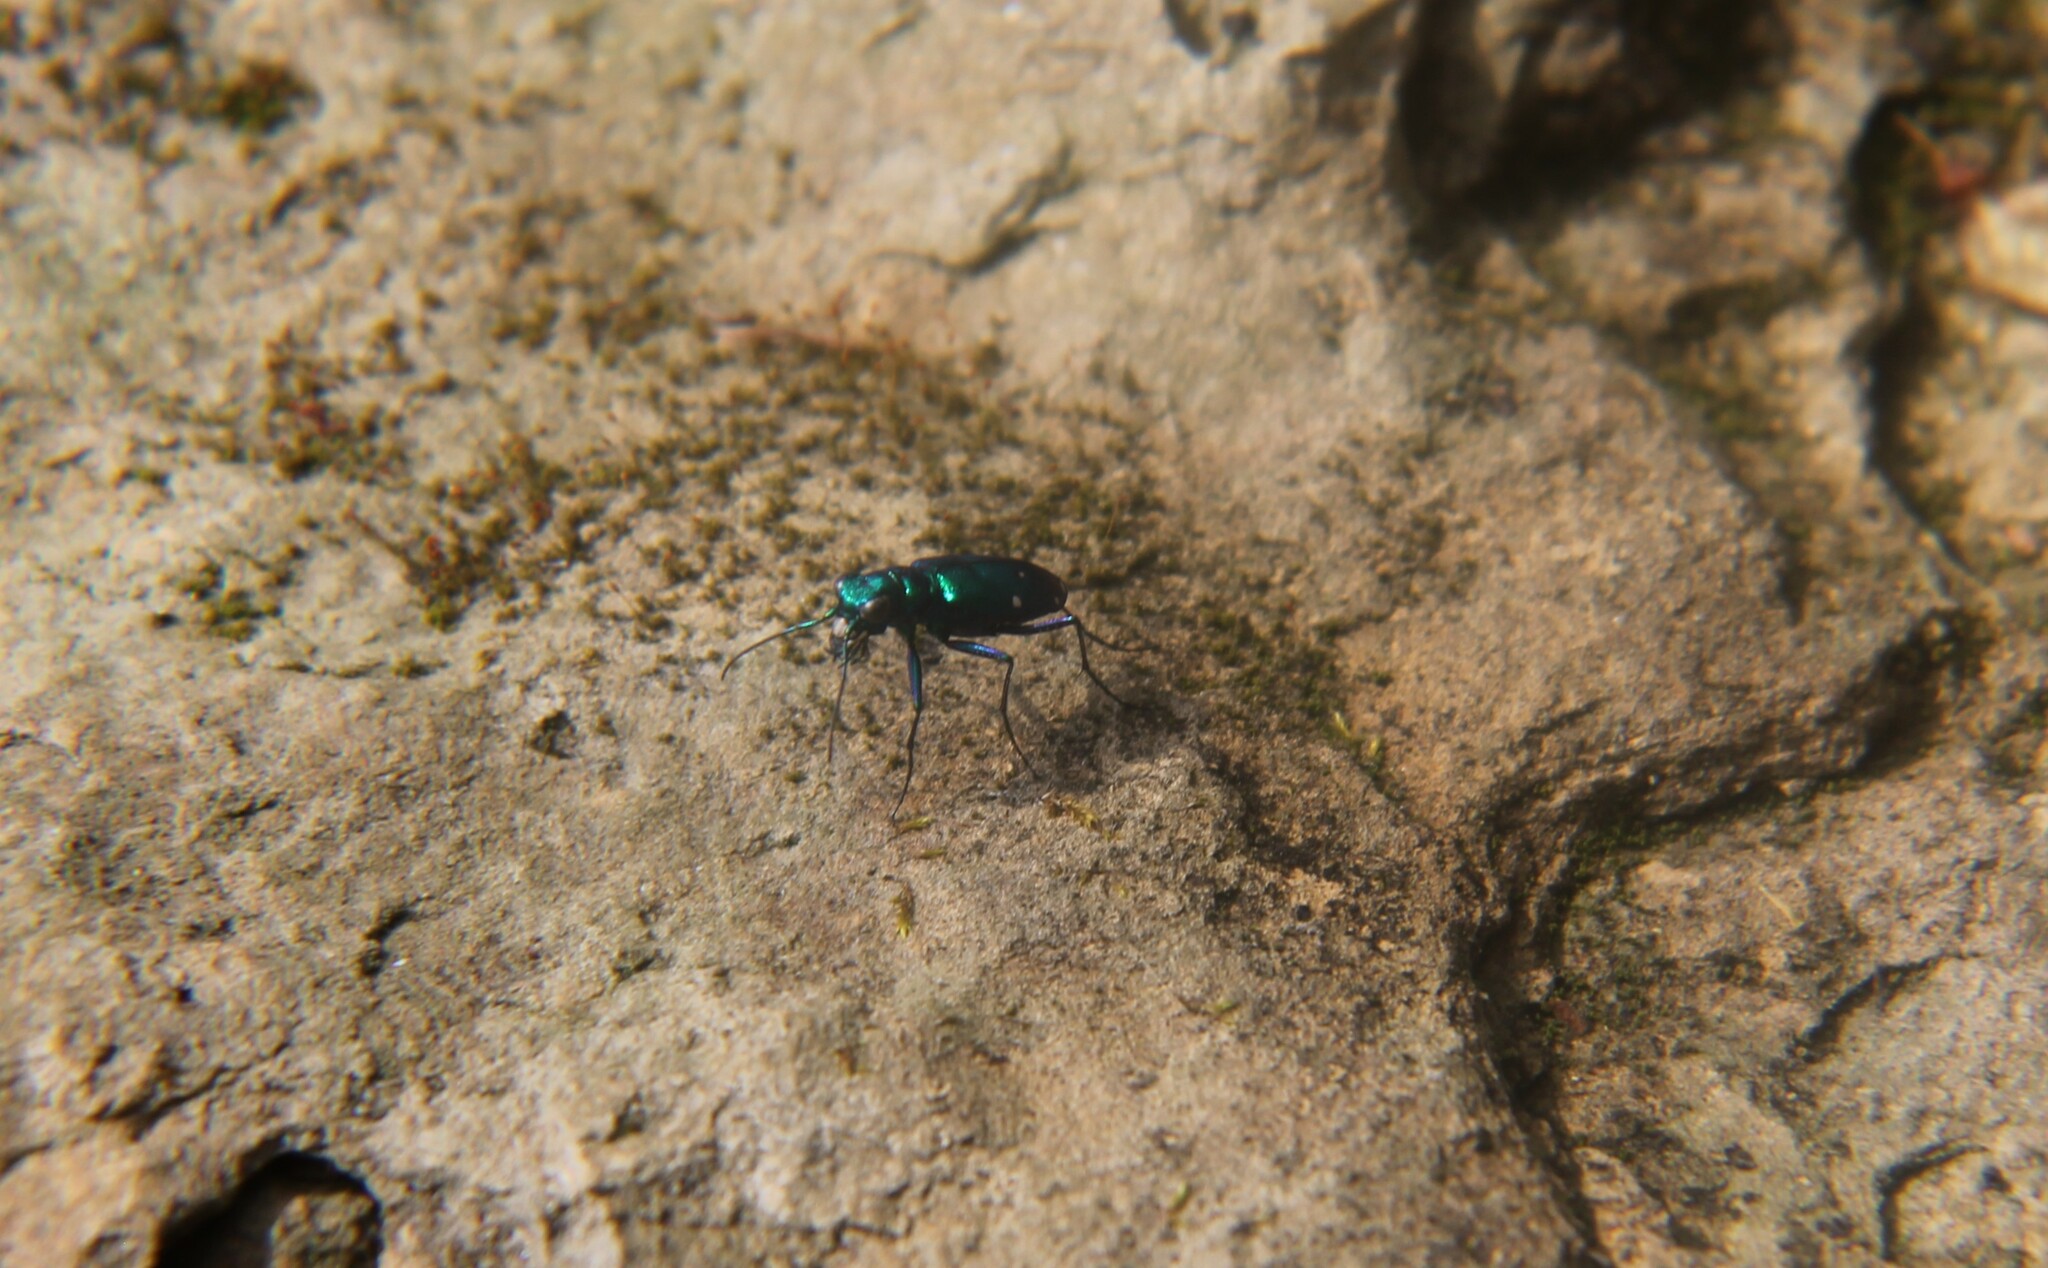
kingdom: Animalia
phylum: Arthropoda
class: Insecta
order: Coleoptera
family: Carabidae
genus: Cicindela
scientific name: Cicindela sexguttata
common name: Six-spotted tiger beetle
